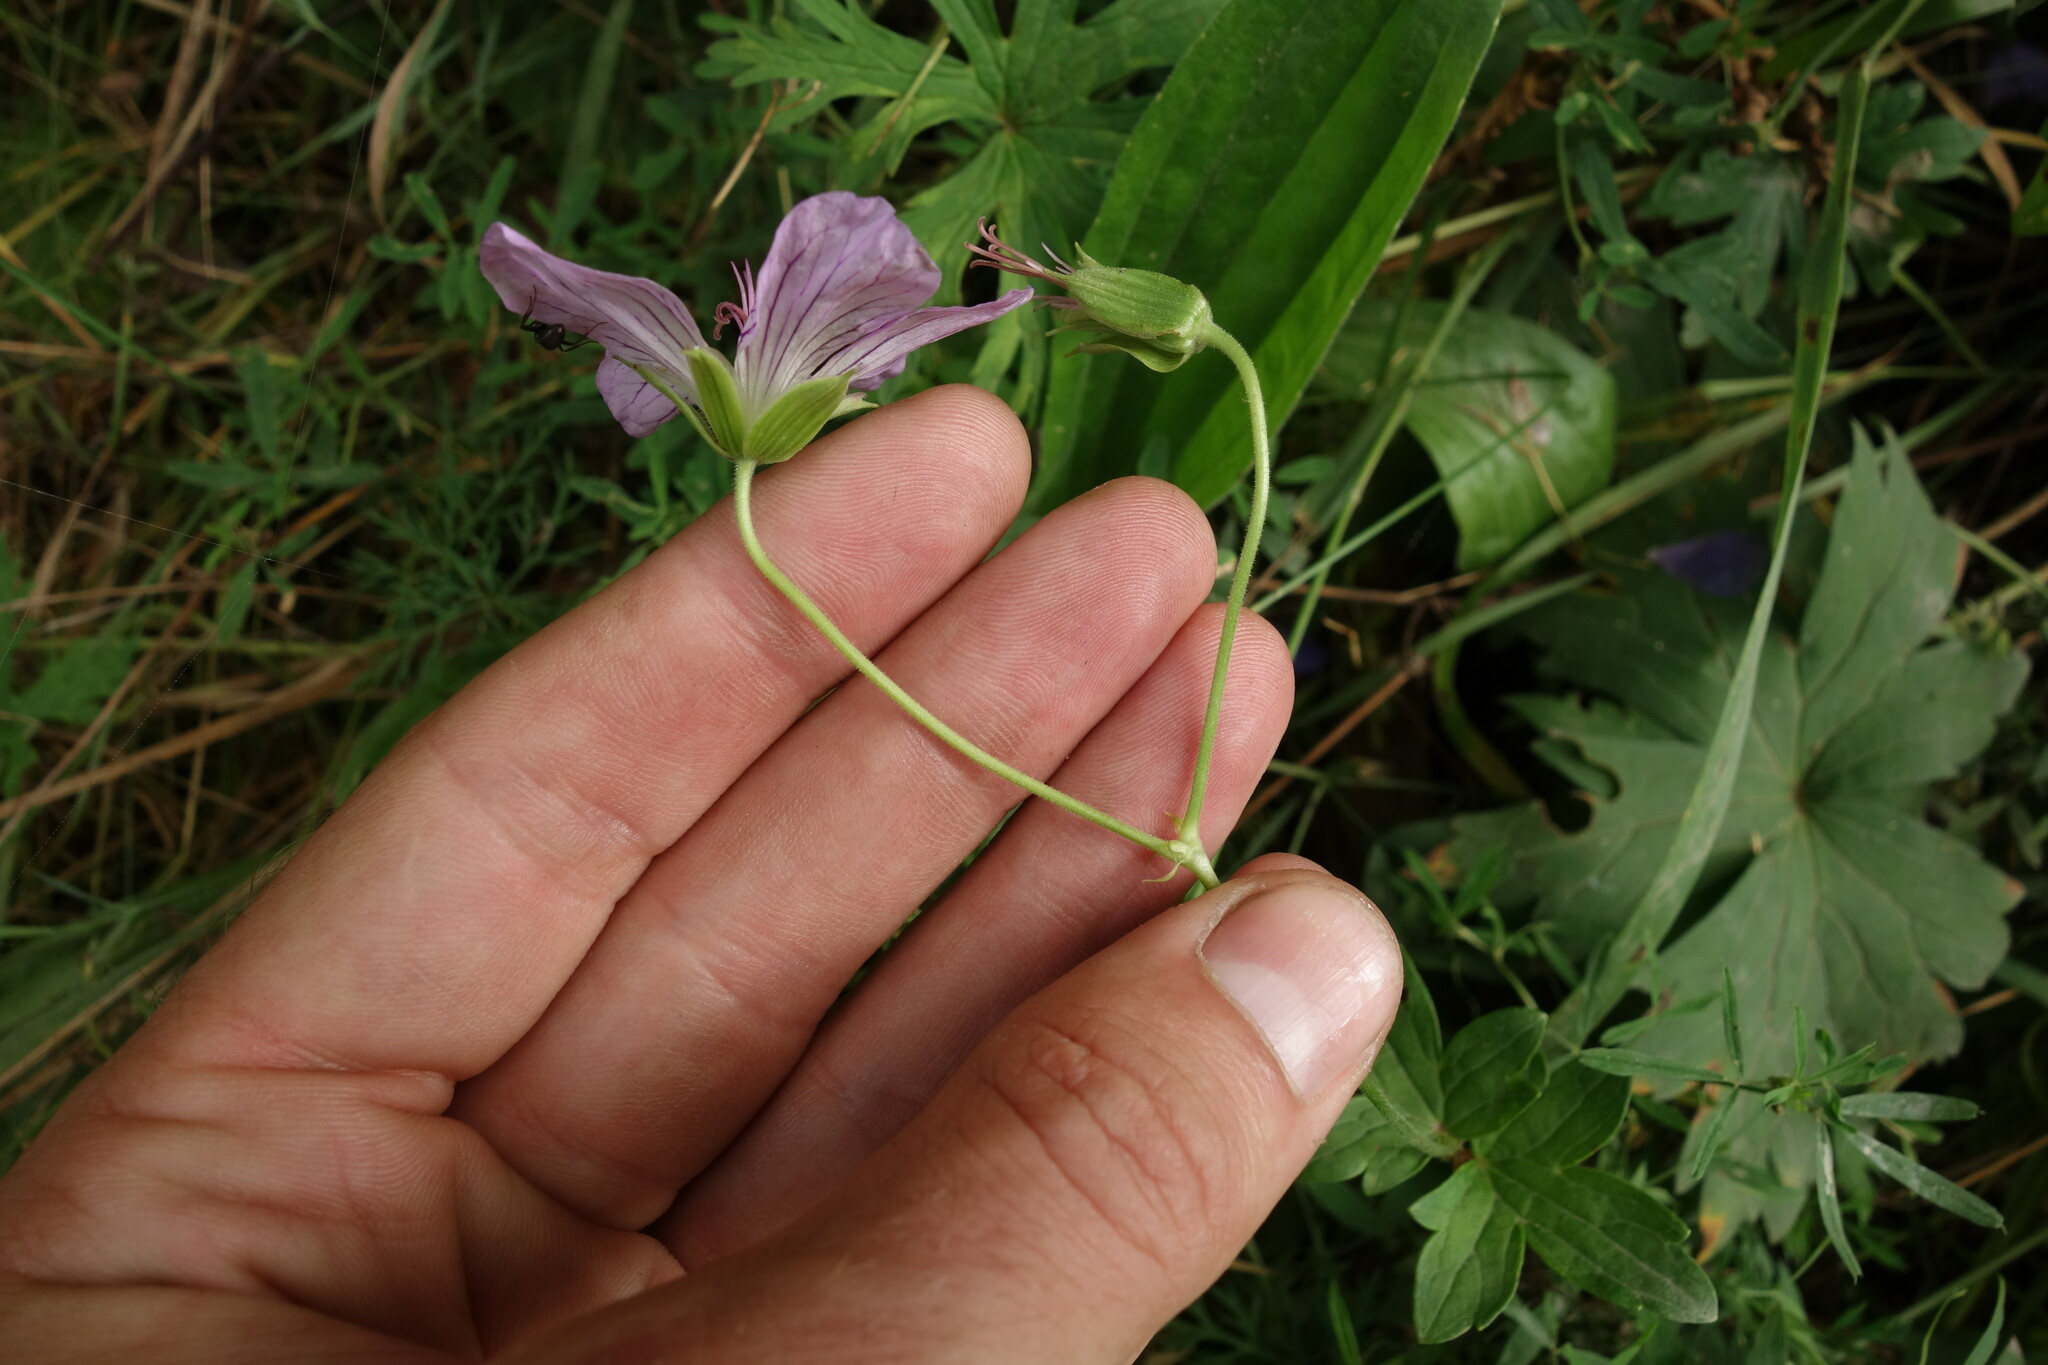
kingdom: Plantae
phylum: Tracheophyta
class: Magnoliopsida
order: Geraniales
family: Geraniaceae
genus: Geranium
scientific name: Geranium wlassovianum
